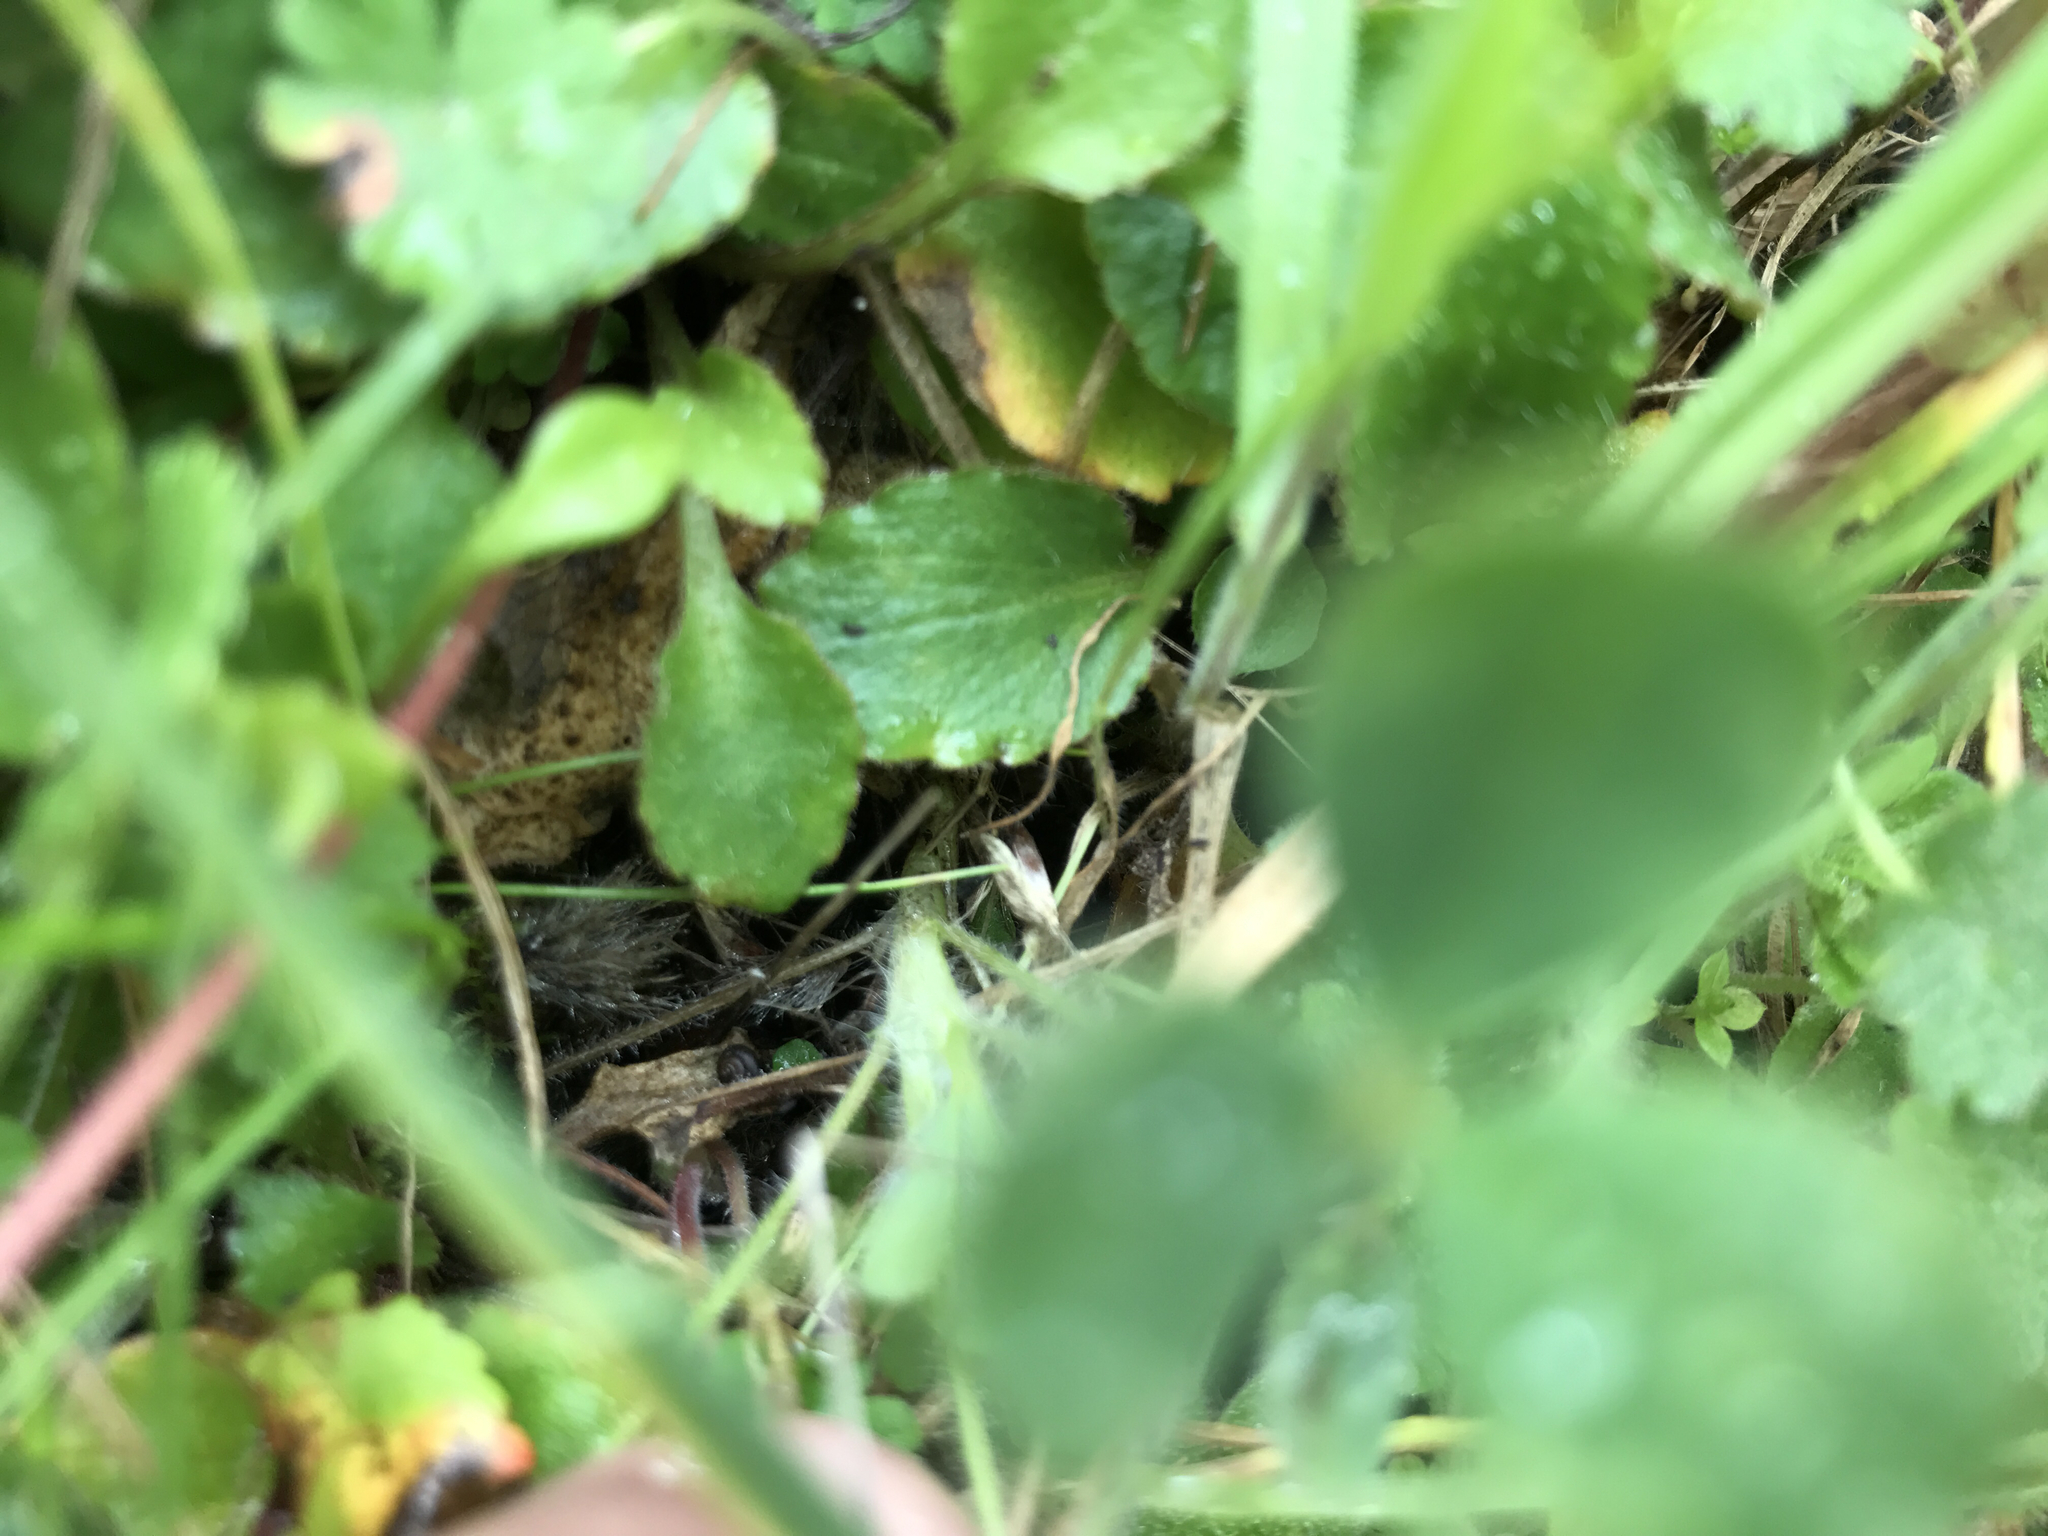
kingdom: Plantae
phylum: Tracheophyta
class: Magnoliopsida
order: Saxifragales
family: Saxifragaceae
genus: Micranthes
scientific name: Micranthes californica
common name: California saxifrage
